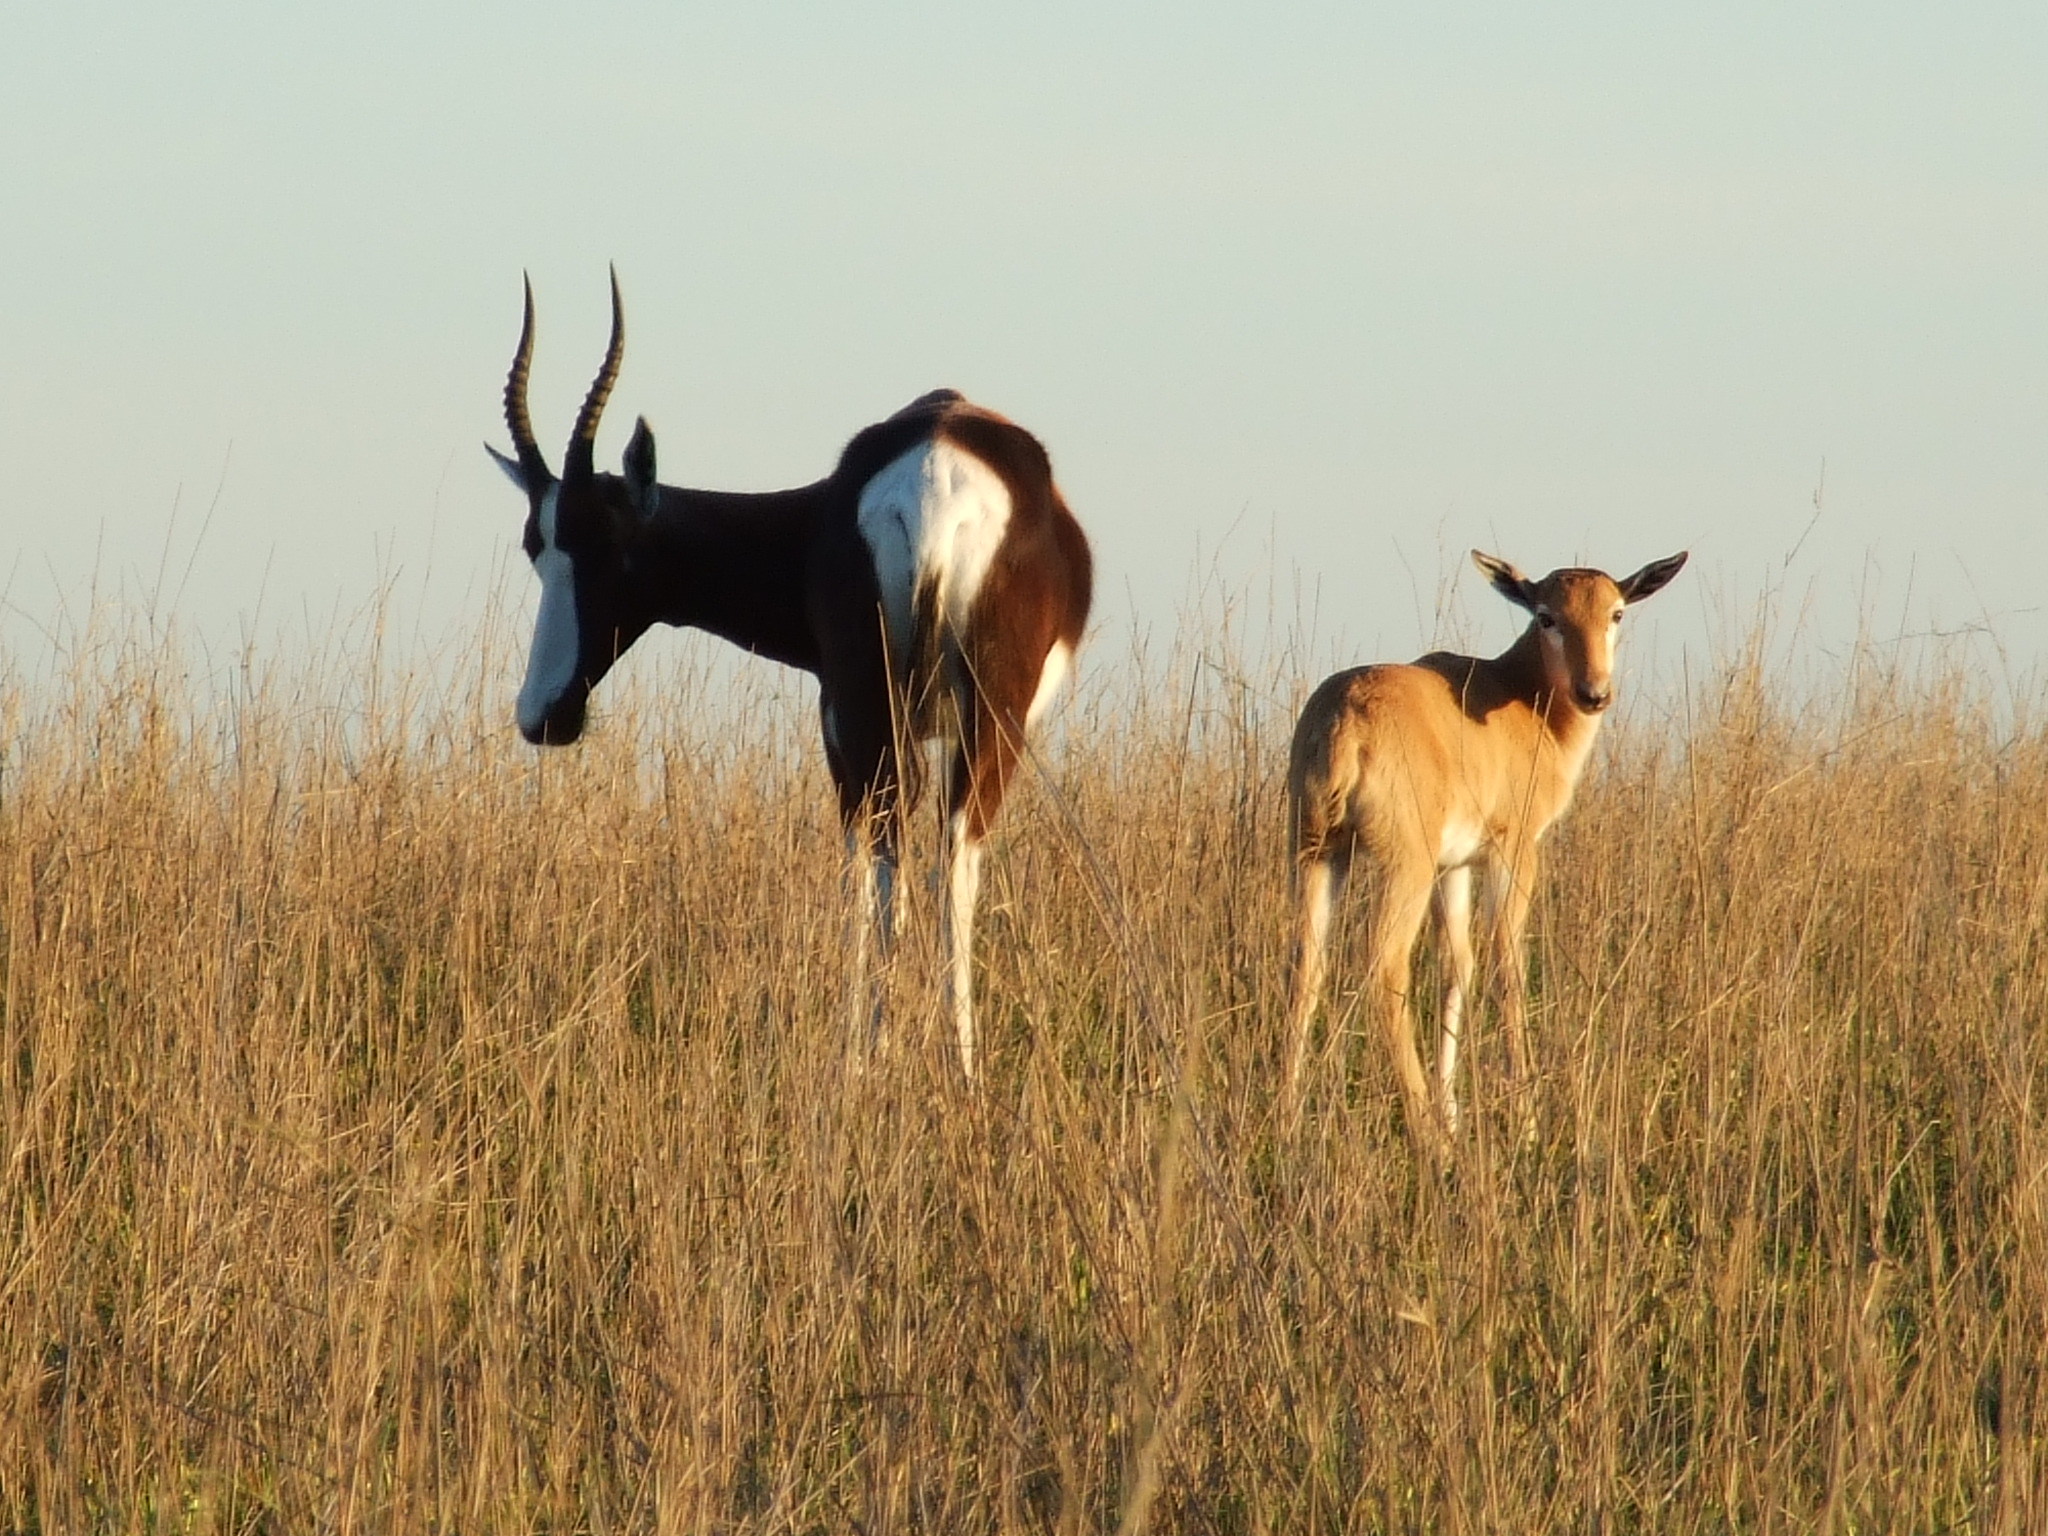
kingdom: Animalia
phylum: Chordata
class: Mammalia
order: Artiodactyla
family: Bovidae
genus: Damaliscus
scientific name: Damaliscus pygargus
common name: Bontebok
